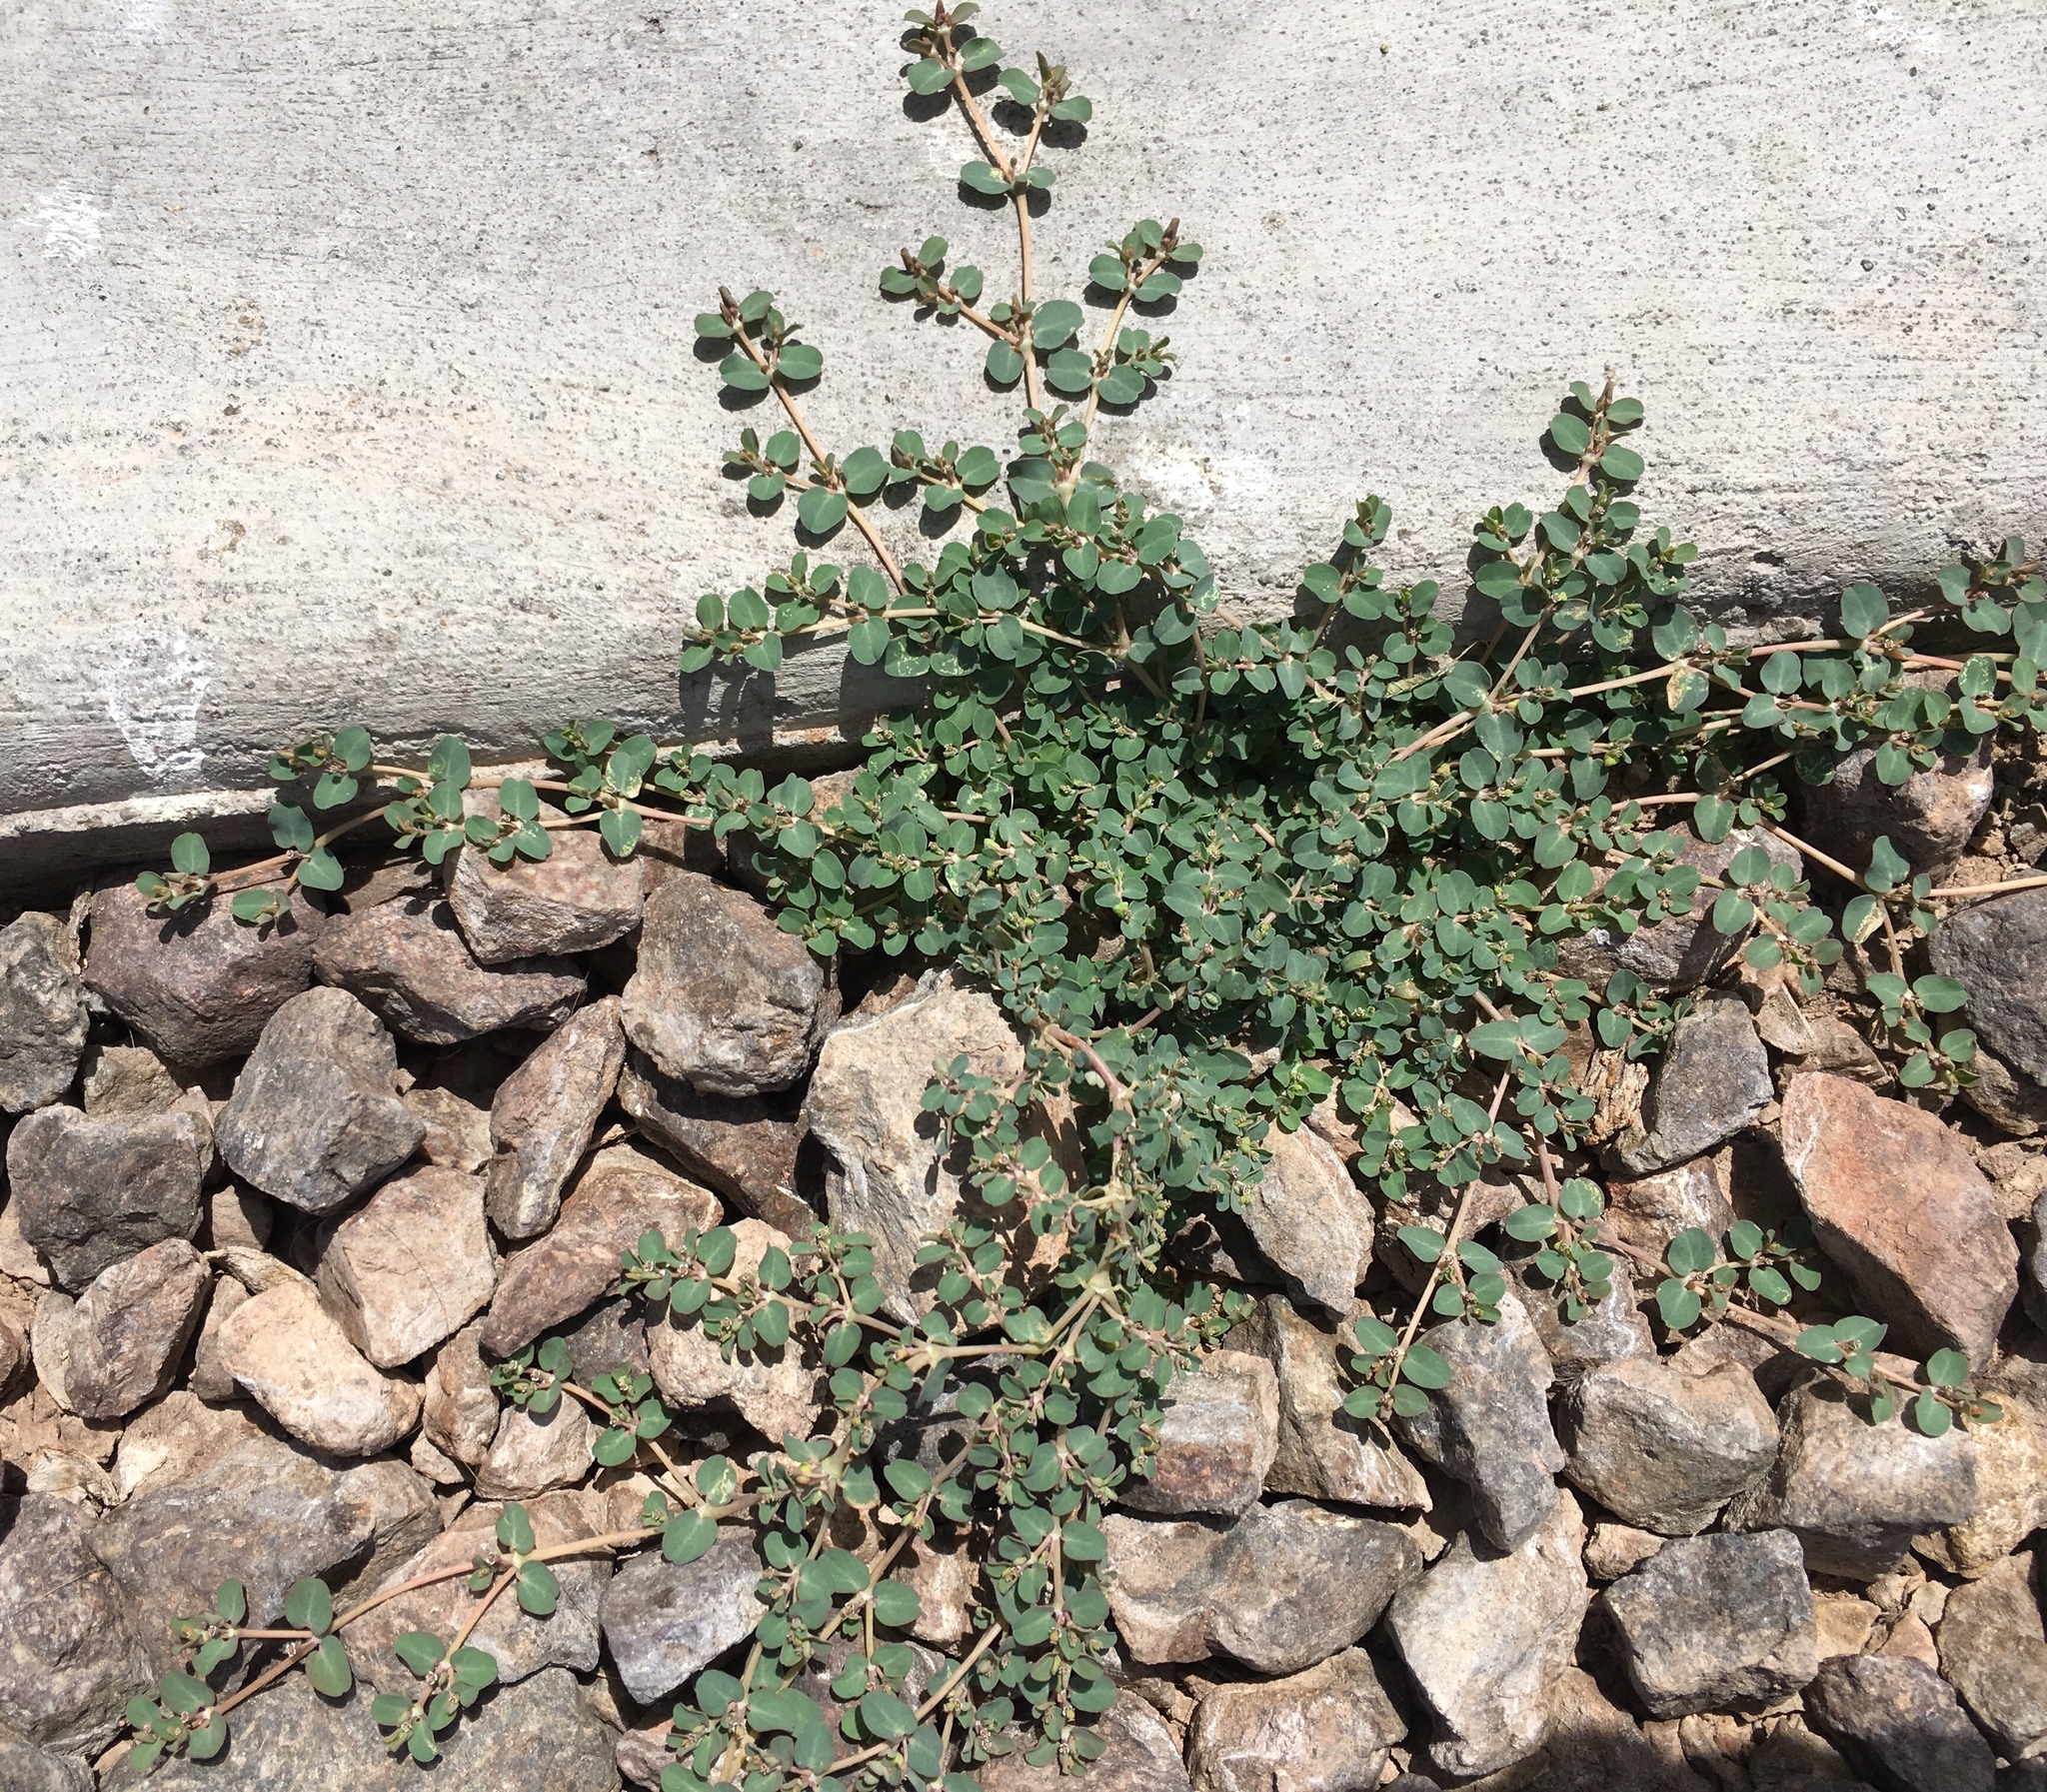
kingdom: Plantae
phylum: Tracheophyta
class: Magnoliopsida
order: Malpighiales
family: Euphorbiaceae
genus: Euphorbia
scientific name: Euphorbia serpens
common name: Matted sandmat
